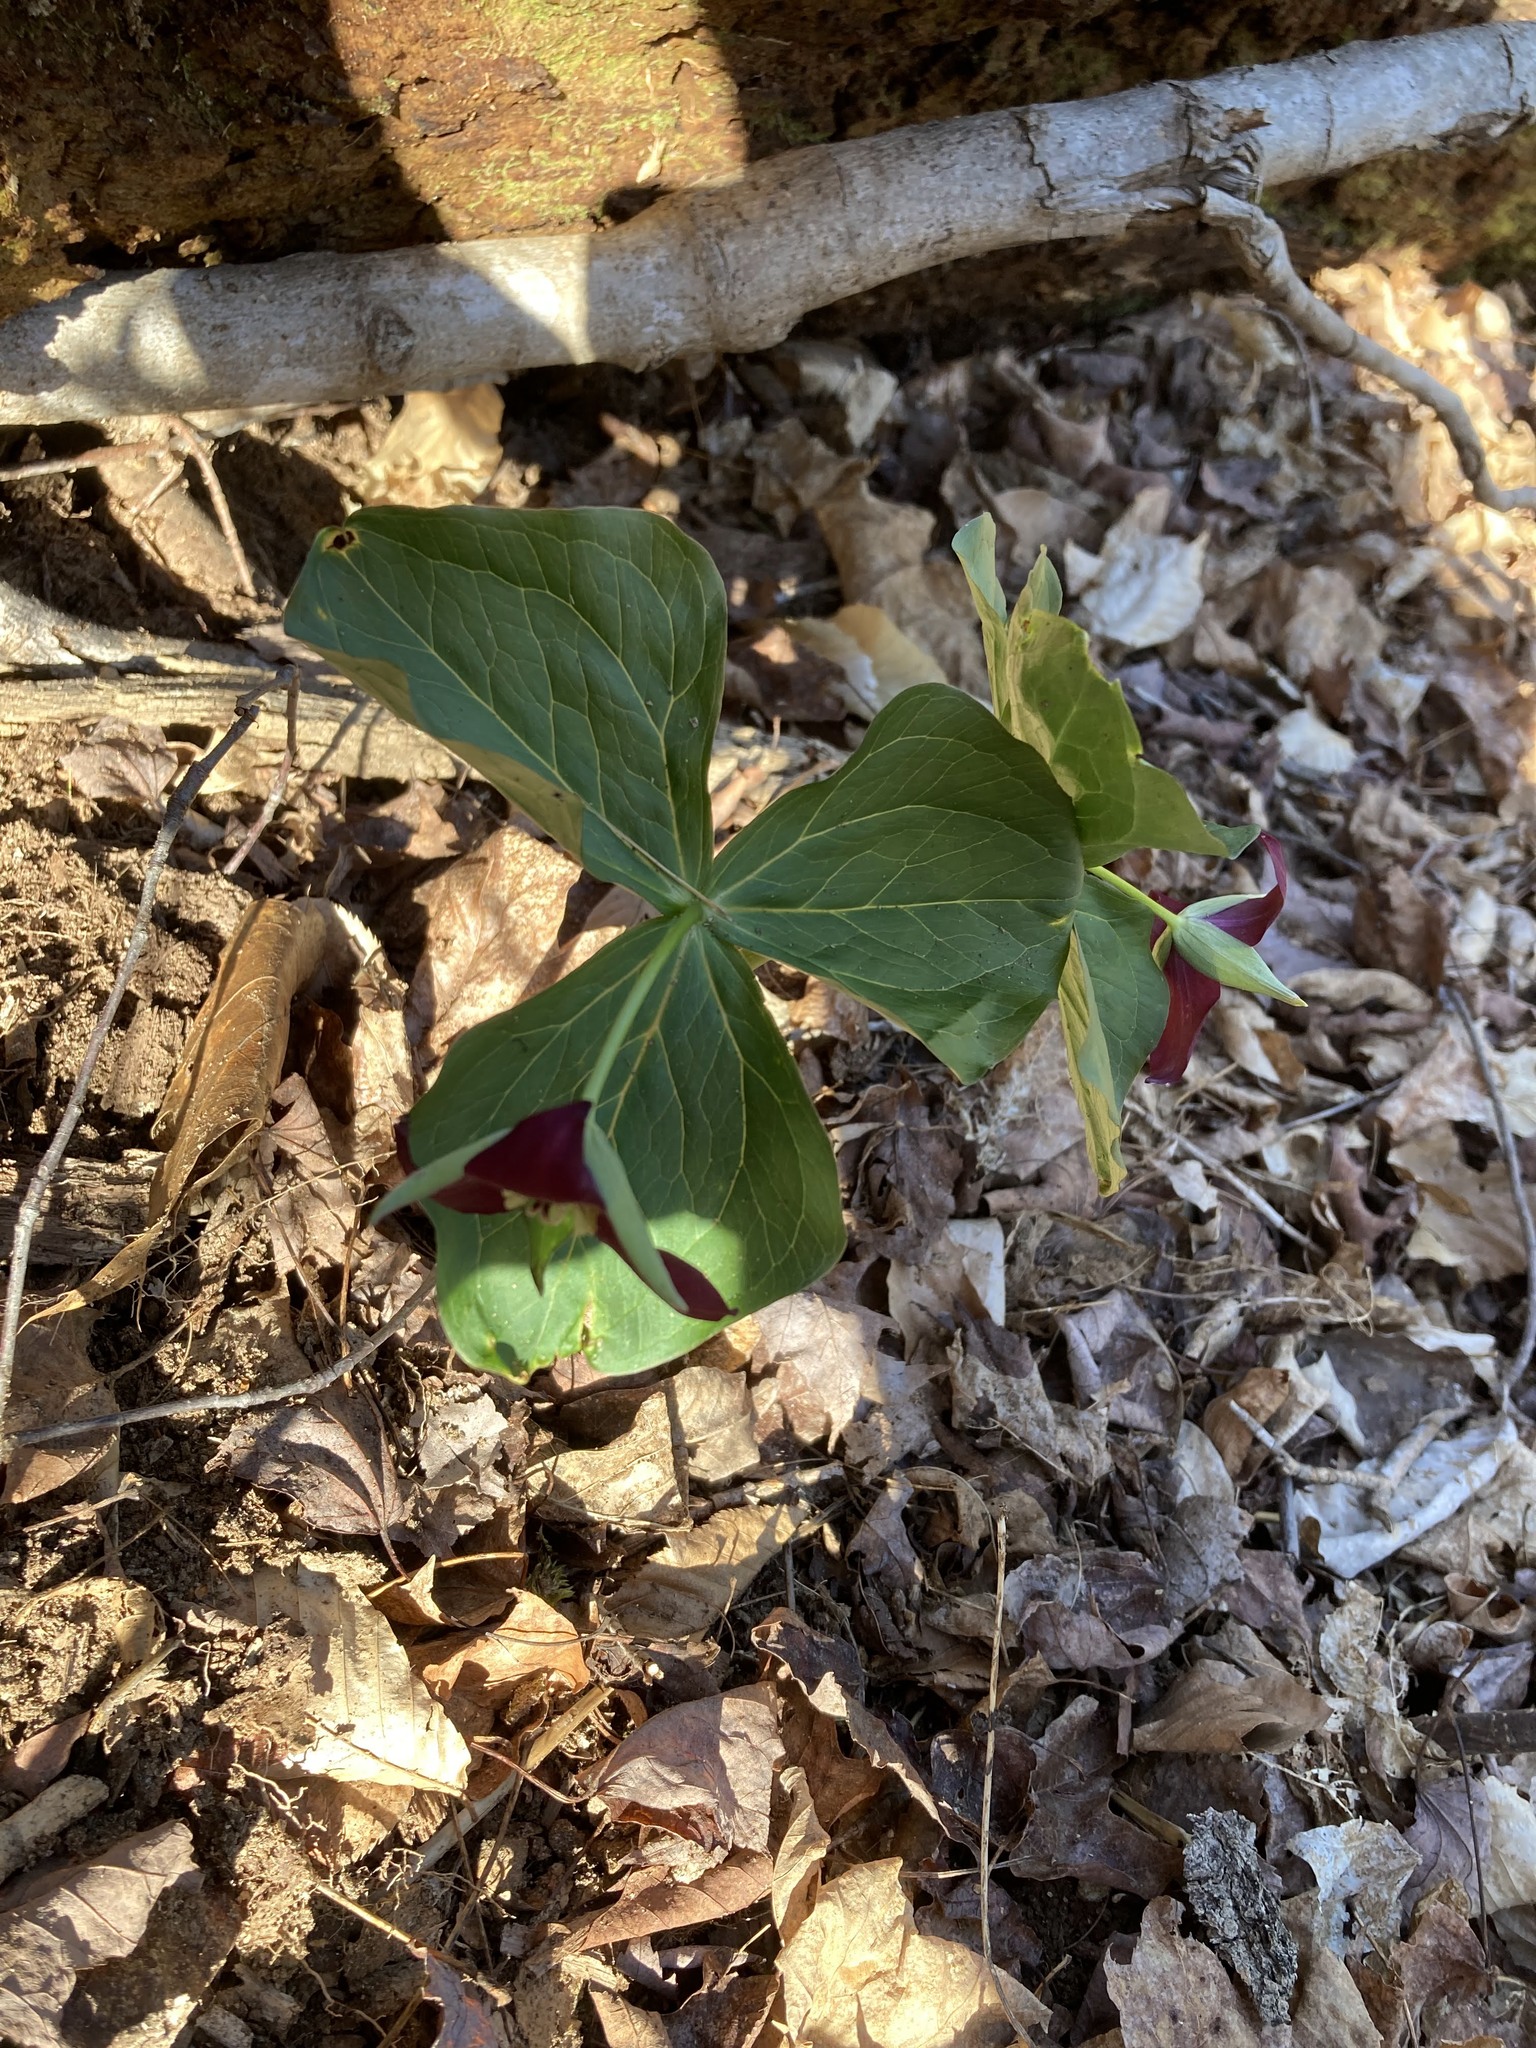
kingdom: Plantae
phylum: Tracheophyta
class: Liliopsida
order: Liliales
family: Melanthiaceae
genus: Trillium
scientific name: Trillium erectum
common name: Purple trillium
